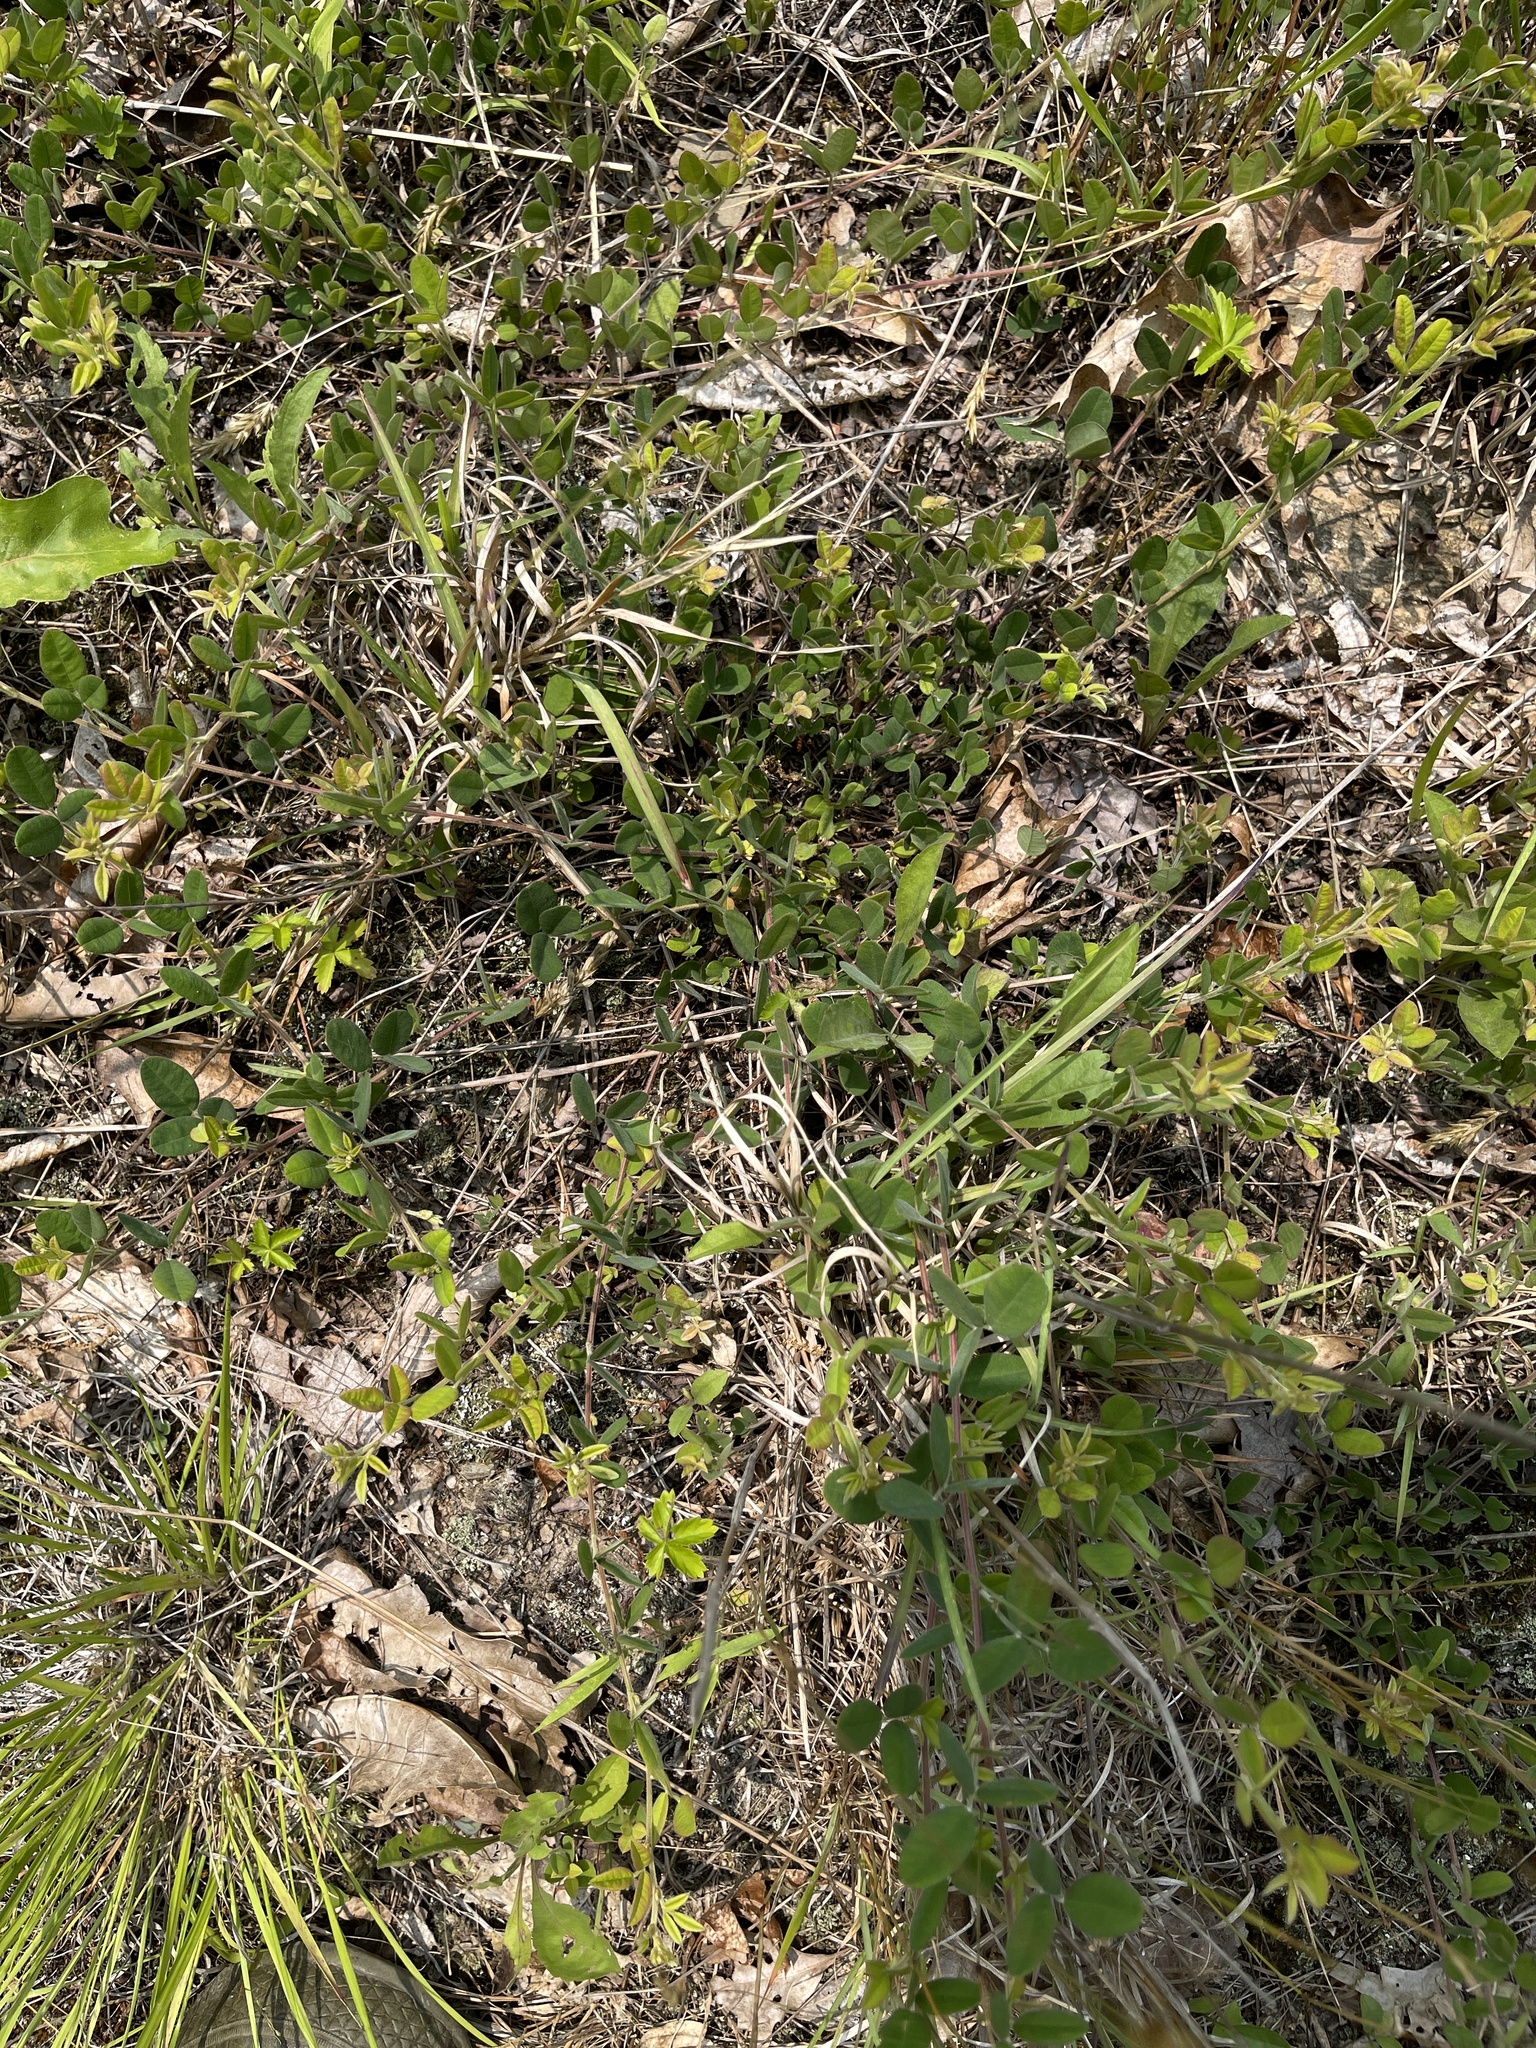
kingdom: Plantae
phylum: Tracheophyta
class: Magnoliopsida
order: Fabales
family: Fabaceae
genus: Lespedeza
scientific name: Lespedeza procumbens
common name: Downy trailing bush-clover
